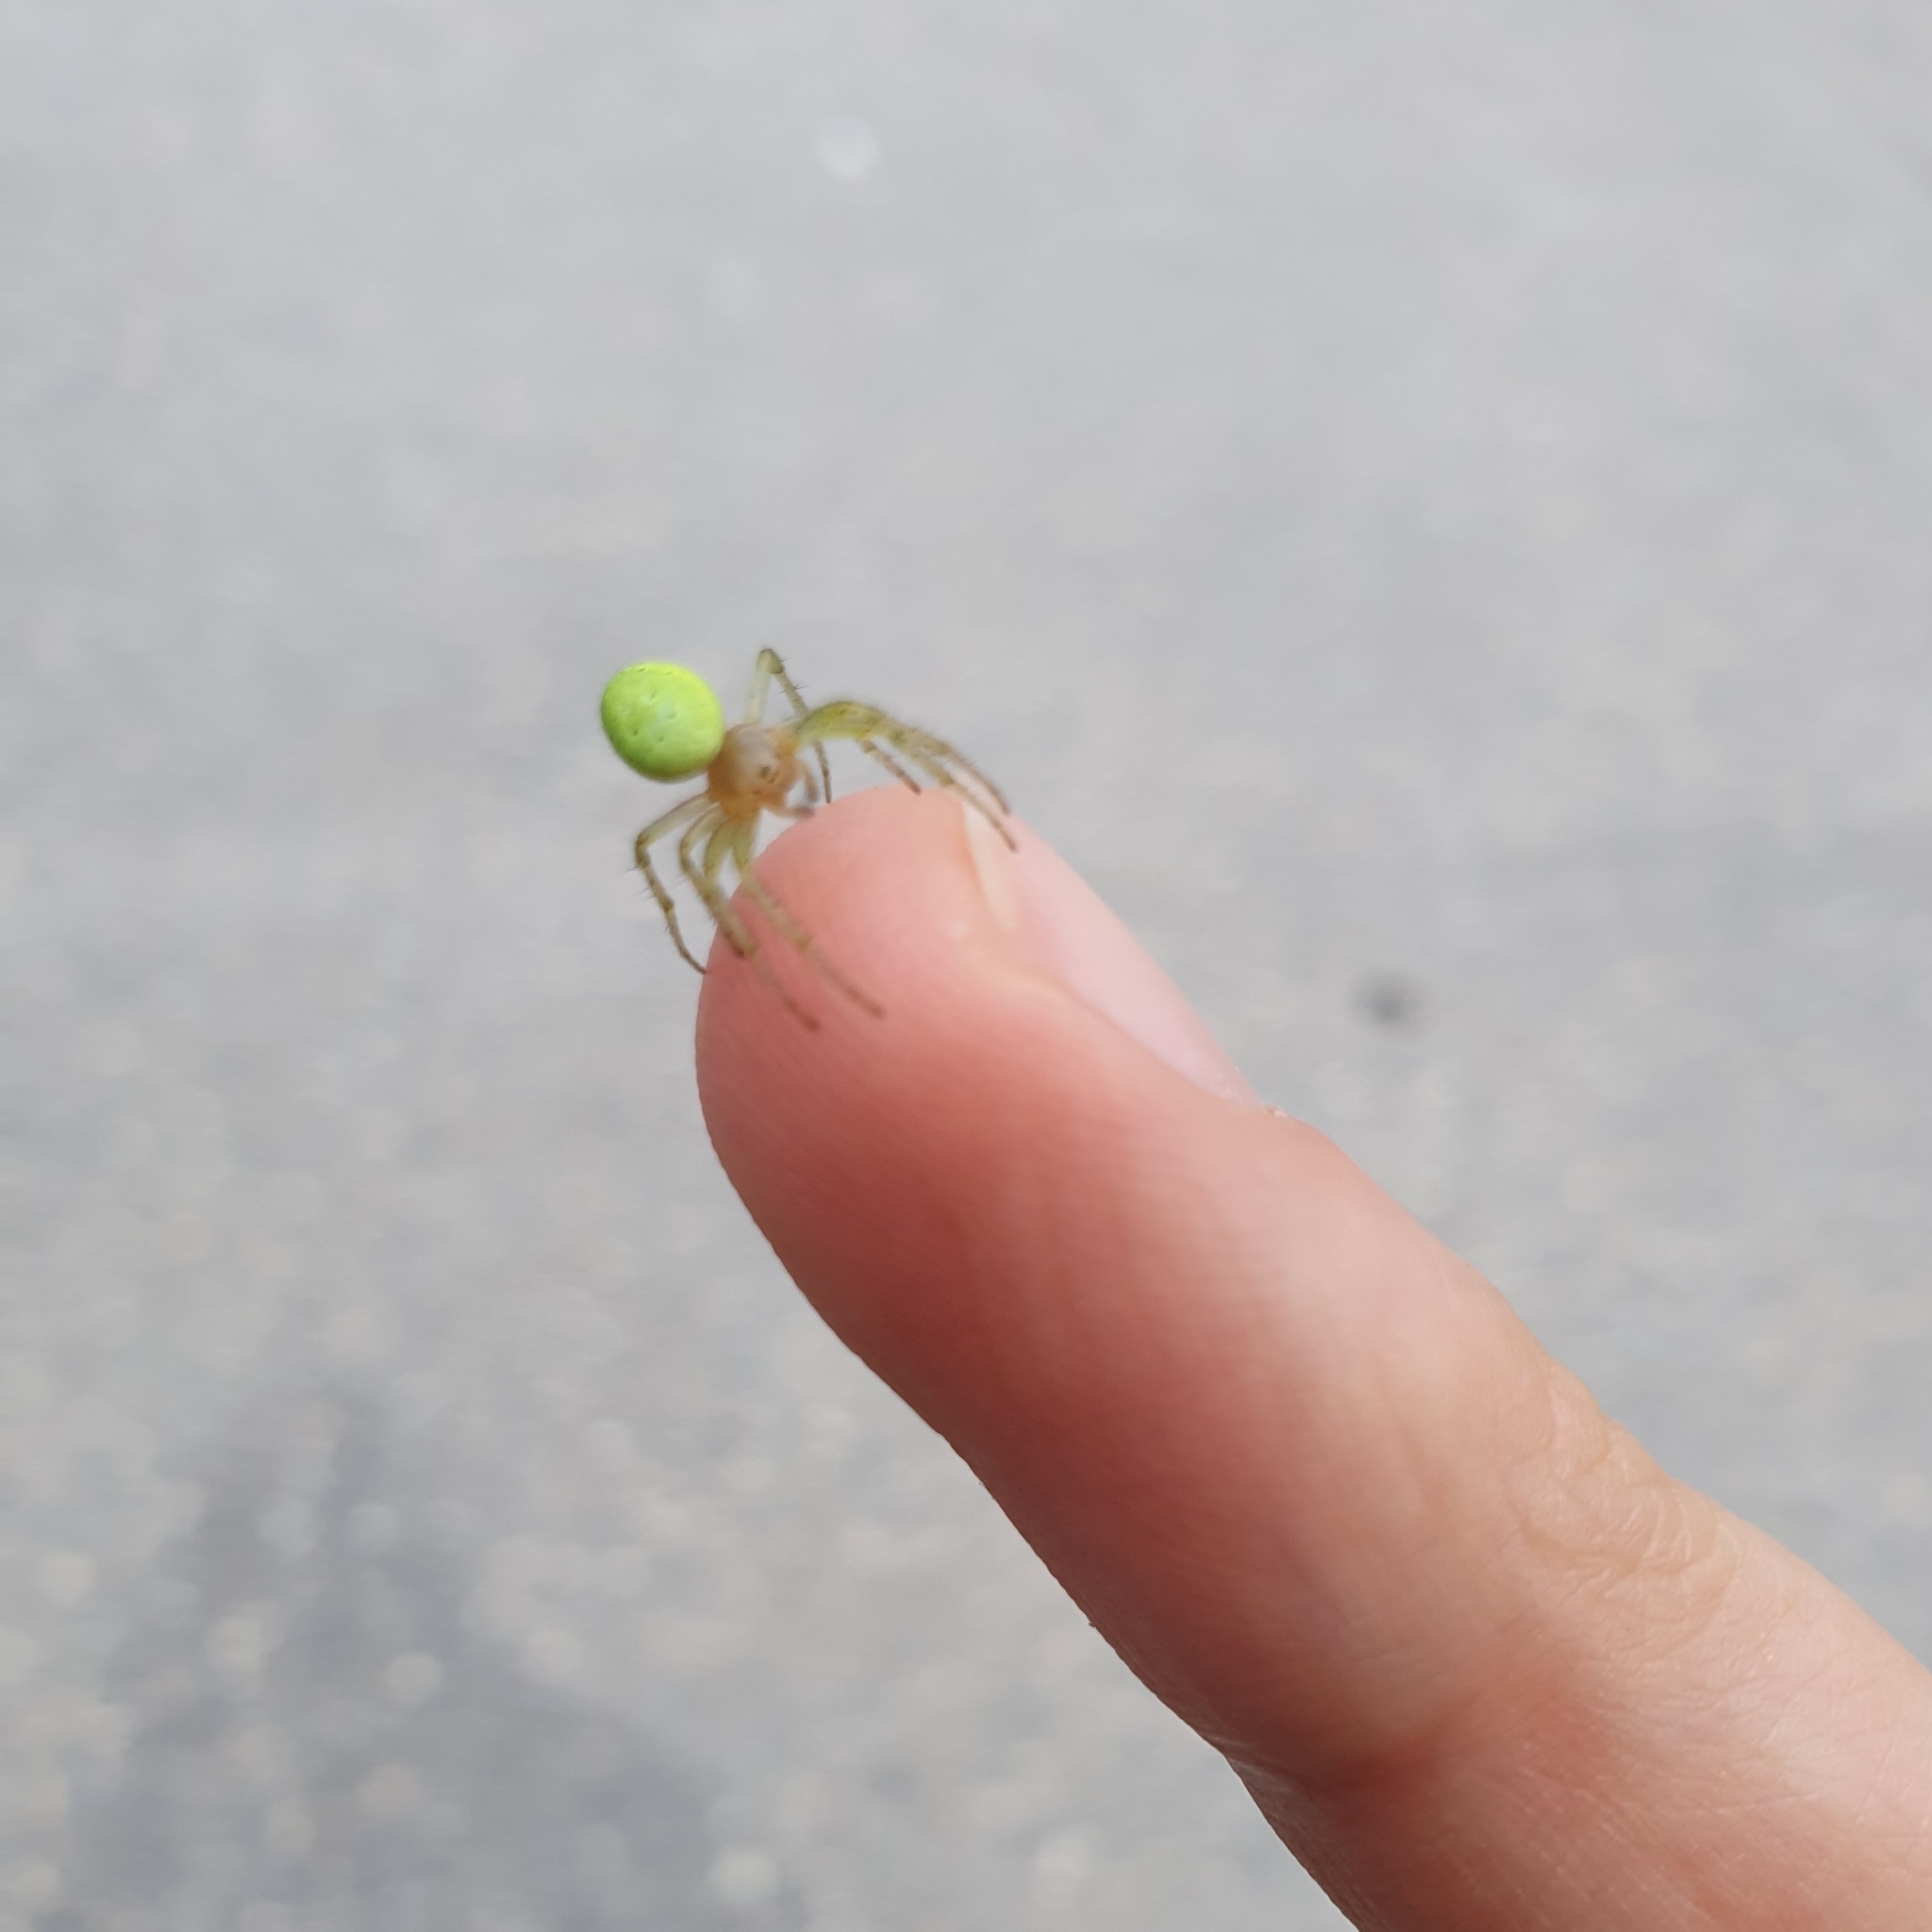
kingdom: Animalia
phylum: Arthropoda
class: Arachnida
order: Araneae
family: Araneidae
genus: Araniella
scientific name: Araniella
